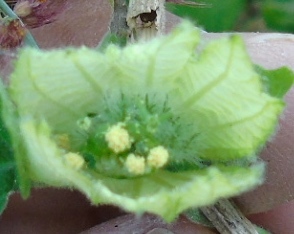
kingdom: Plantae
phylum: Tracheophyta
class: Magnoliopsida
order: Malpighiales
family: Euphorbiaceae
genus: Dalechampia
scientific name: Dalechampia scandens
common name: Spurgecreeper
